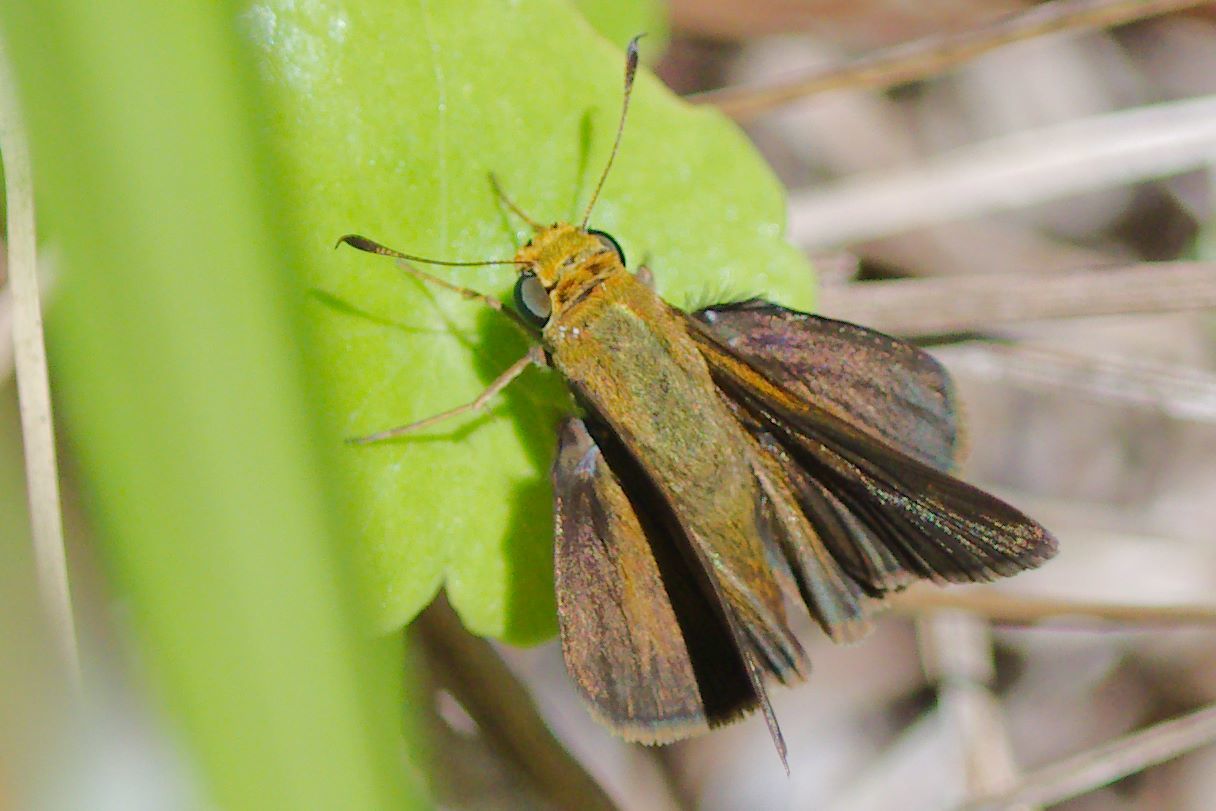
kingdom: Animalia
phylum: Arthropoda
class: Insecta
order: Lepidoptera
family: Hesperiidae
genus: Euphyes
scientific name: Euphyes vestris
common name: Dun skipper
